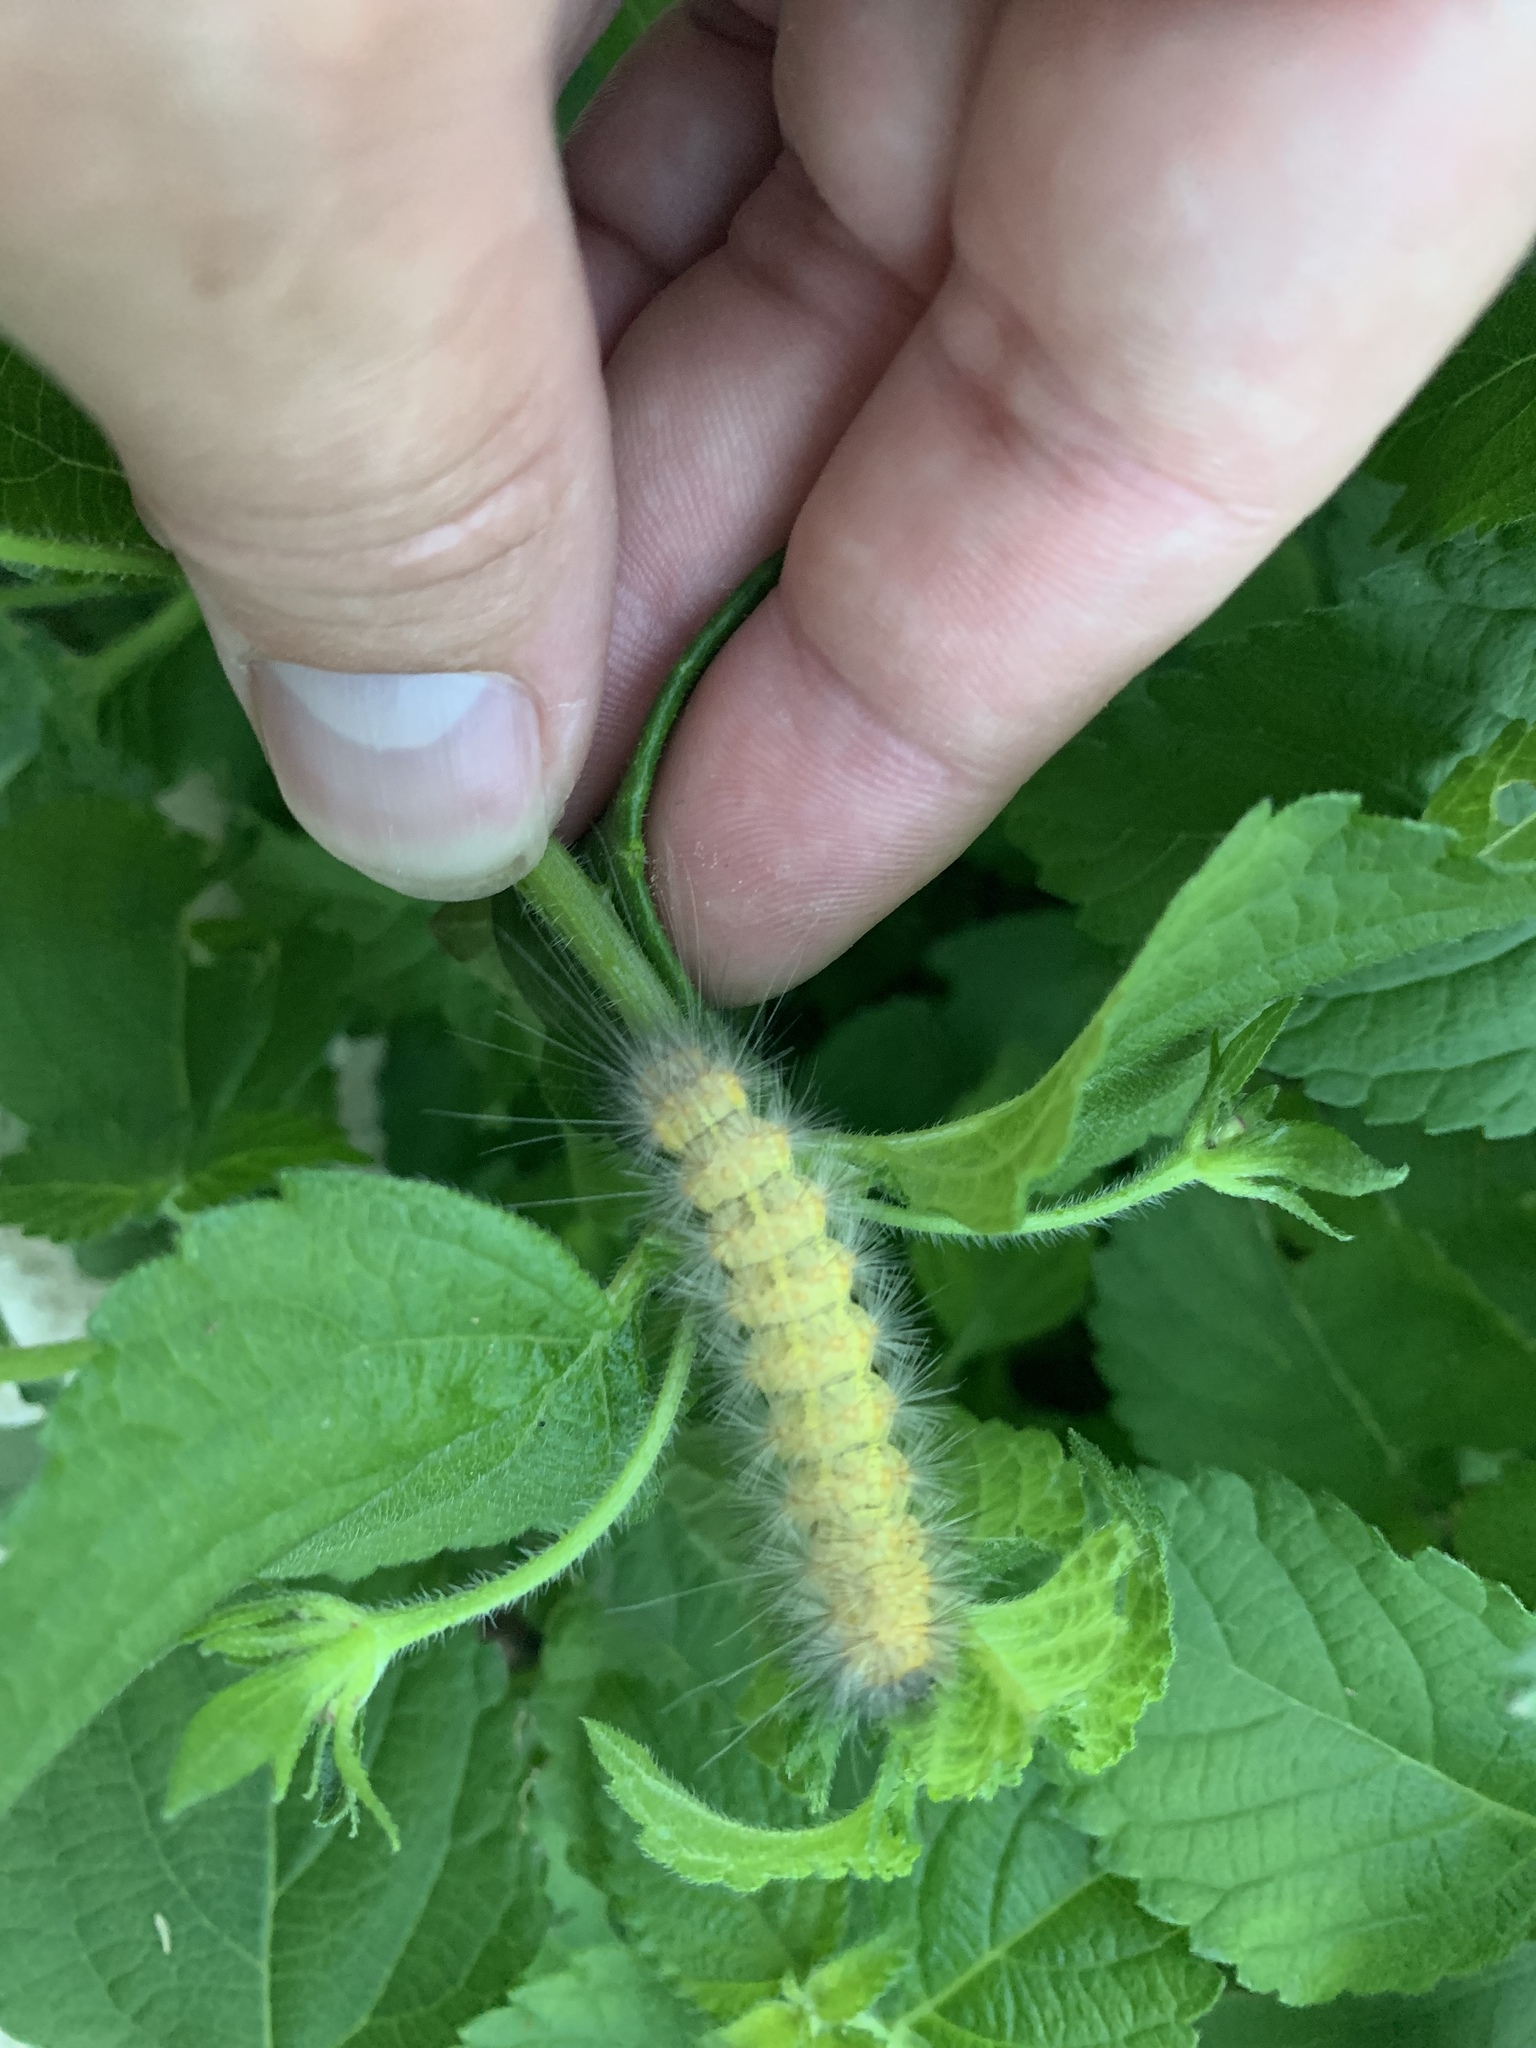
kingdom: Animalia
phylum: Arthropoda
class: Insecta
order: Lepidoptera
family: Erebidae
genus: Estigmene
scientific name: Estigmene acrea
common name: Salt marsh moth
